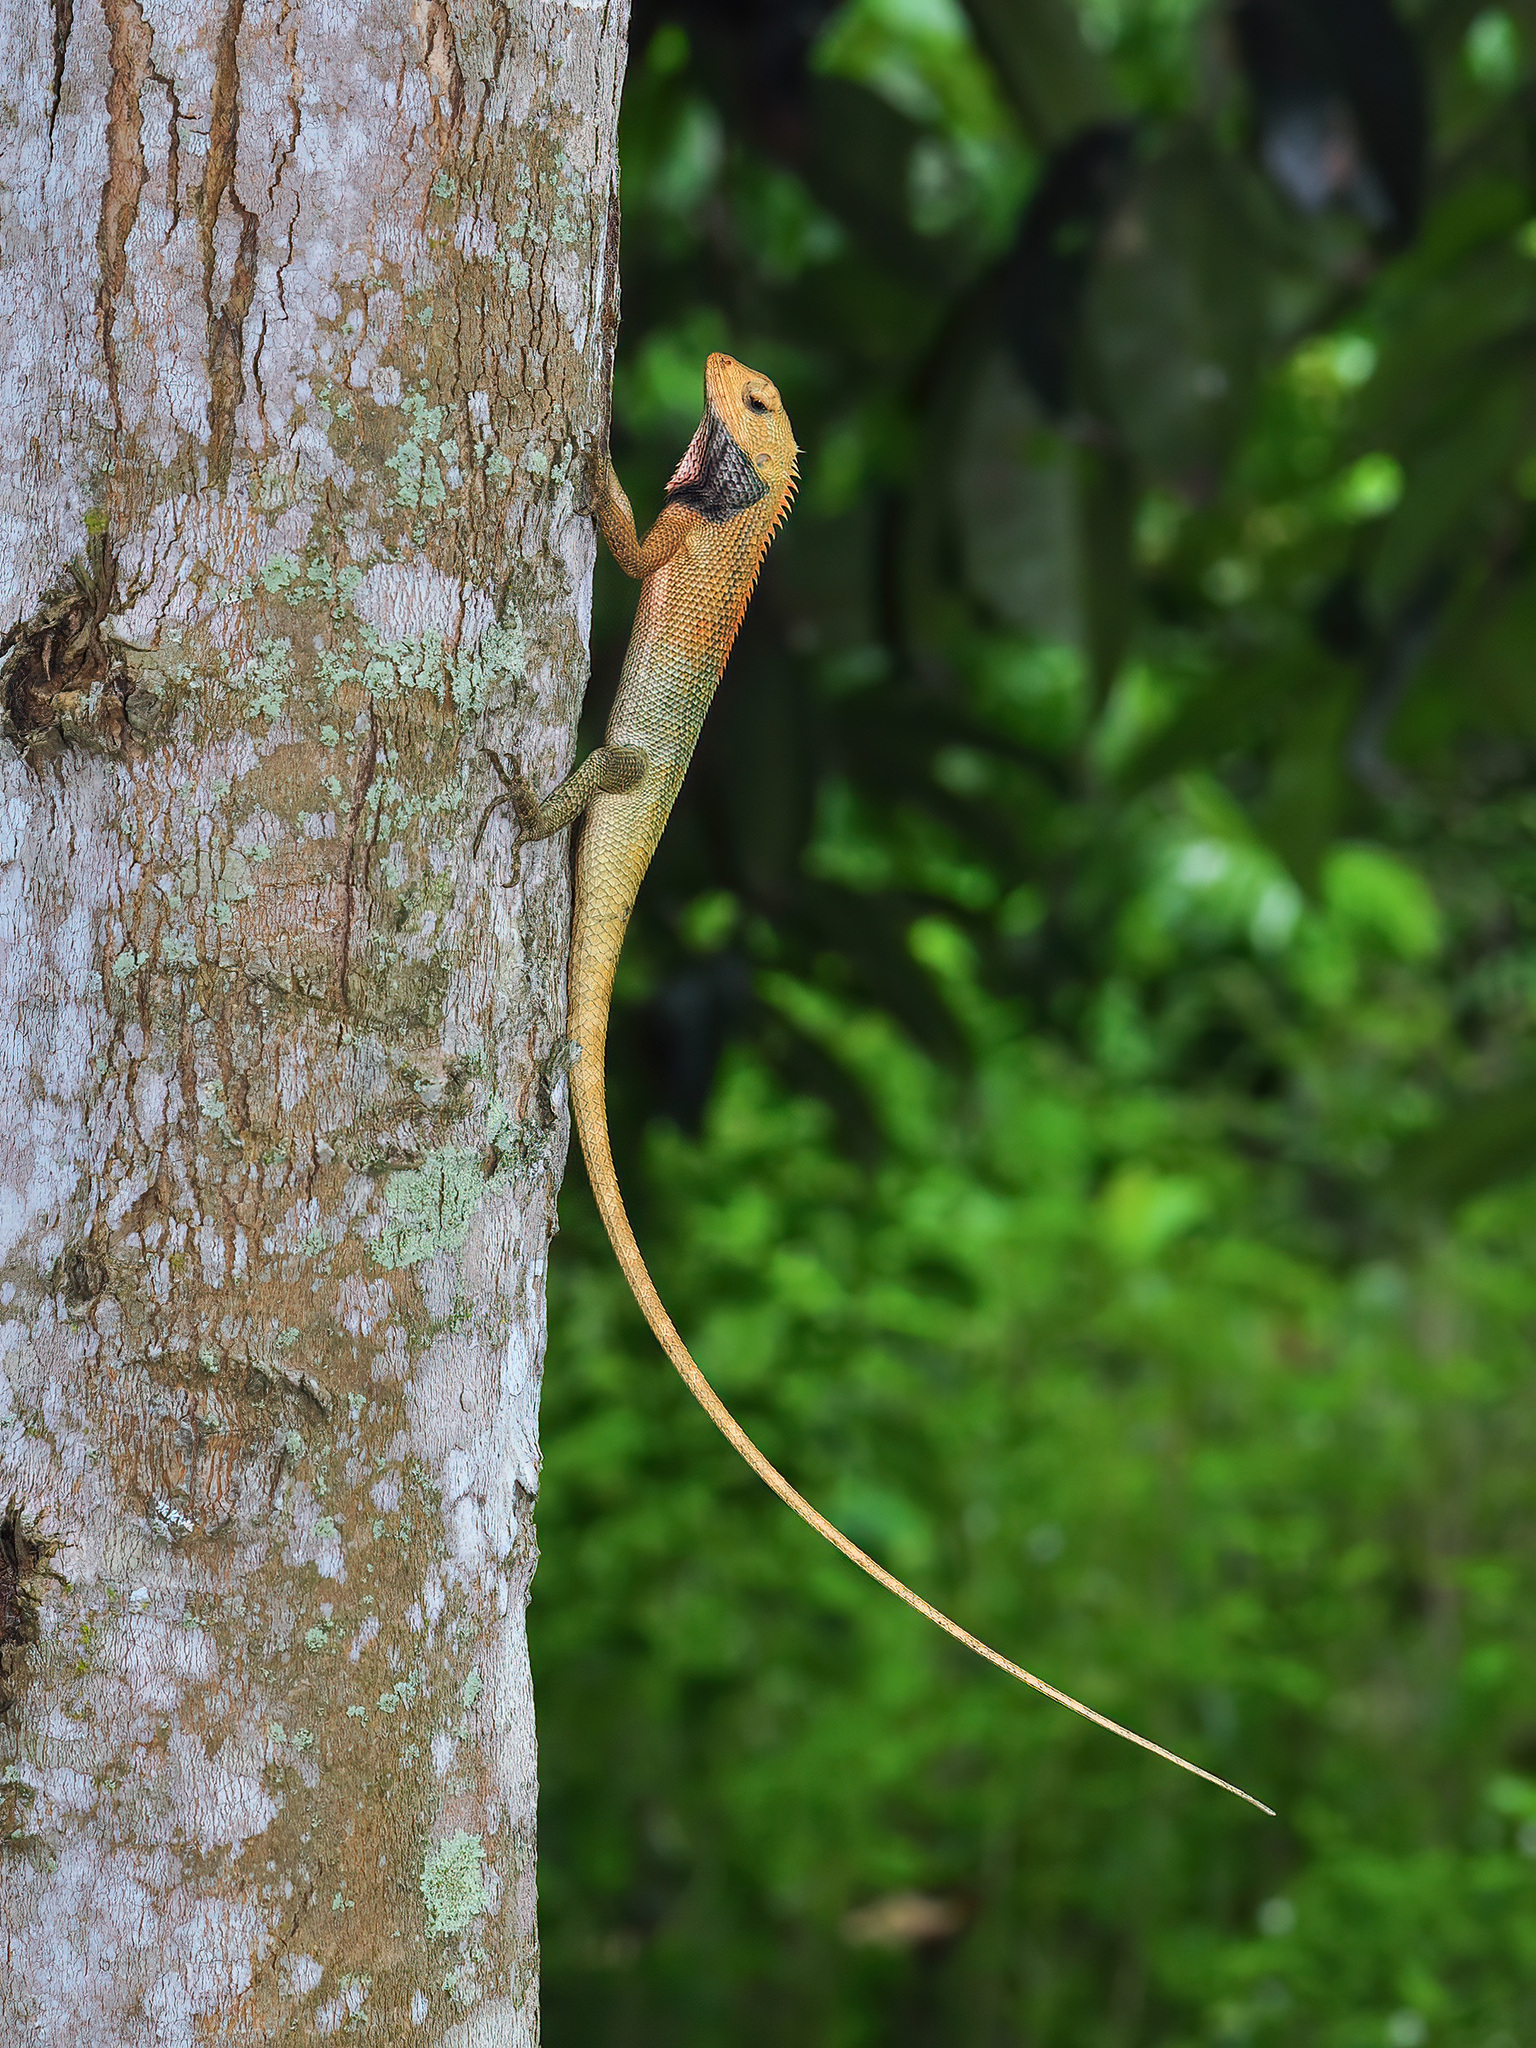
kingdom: Animalia
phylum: Chordata
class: Squamata
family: Agamidae
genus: Calotes
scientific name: Calotes versicolor
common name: Oriental garden lizard
